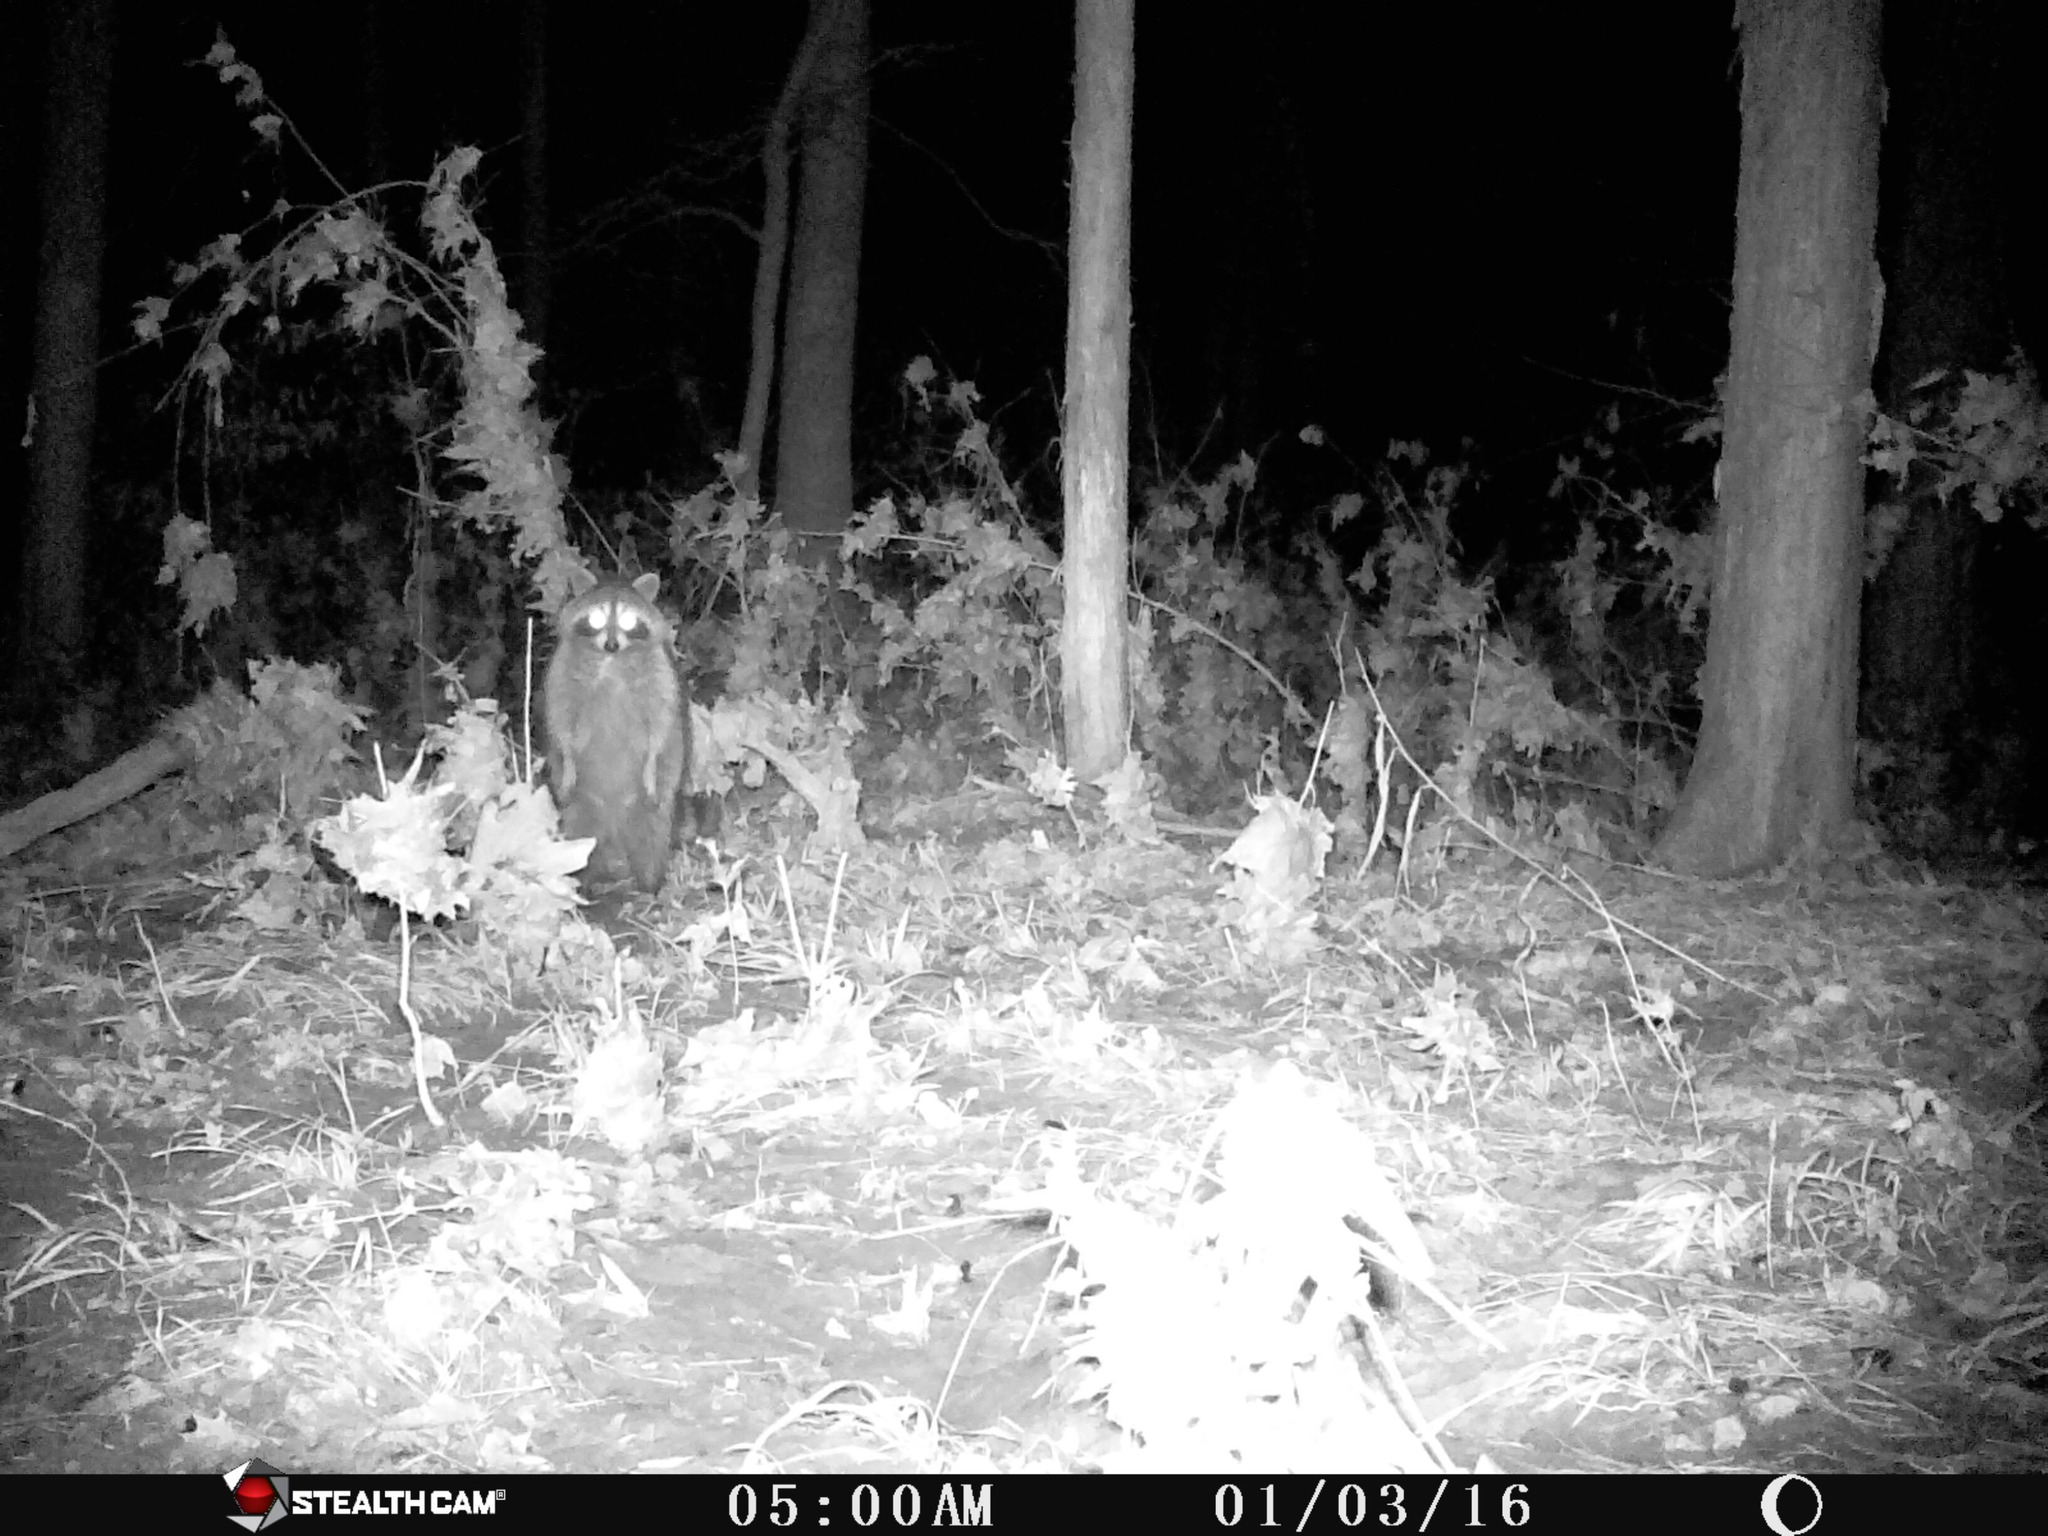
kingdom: Animalia
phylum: Chordata
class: Mammalia
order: Carnivora
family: Procyonidae
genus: Procyon
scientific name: Procyon lotor
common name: Raccoon
